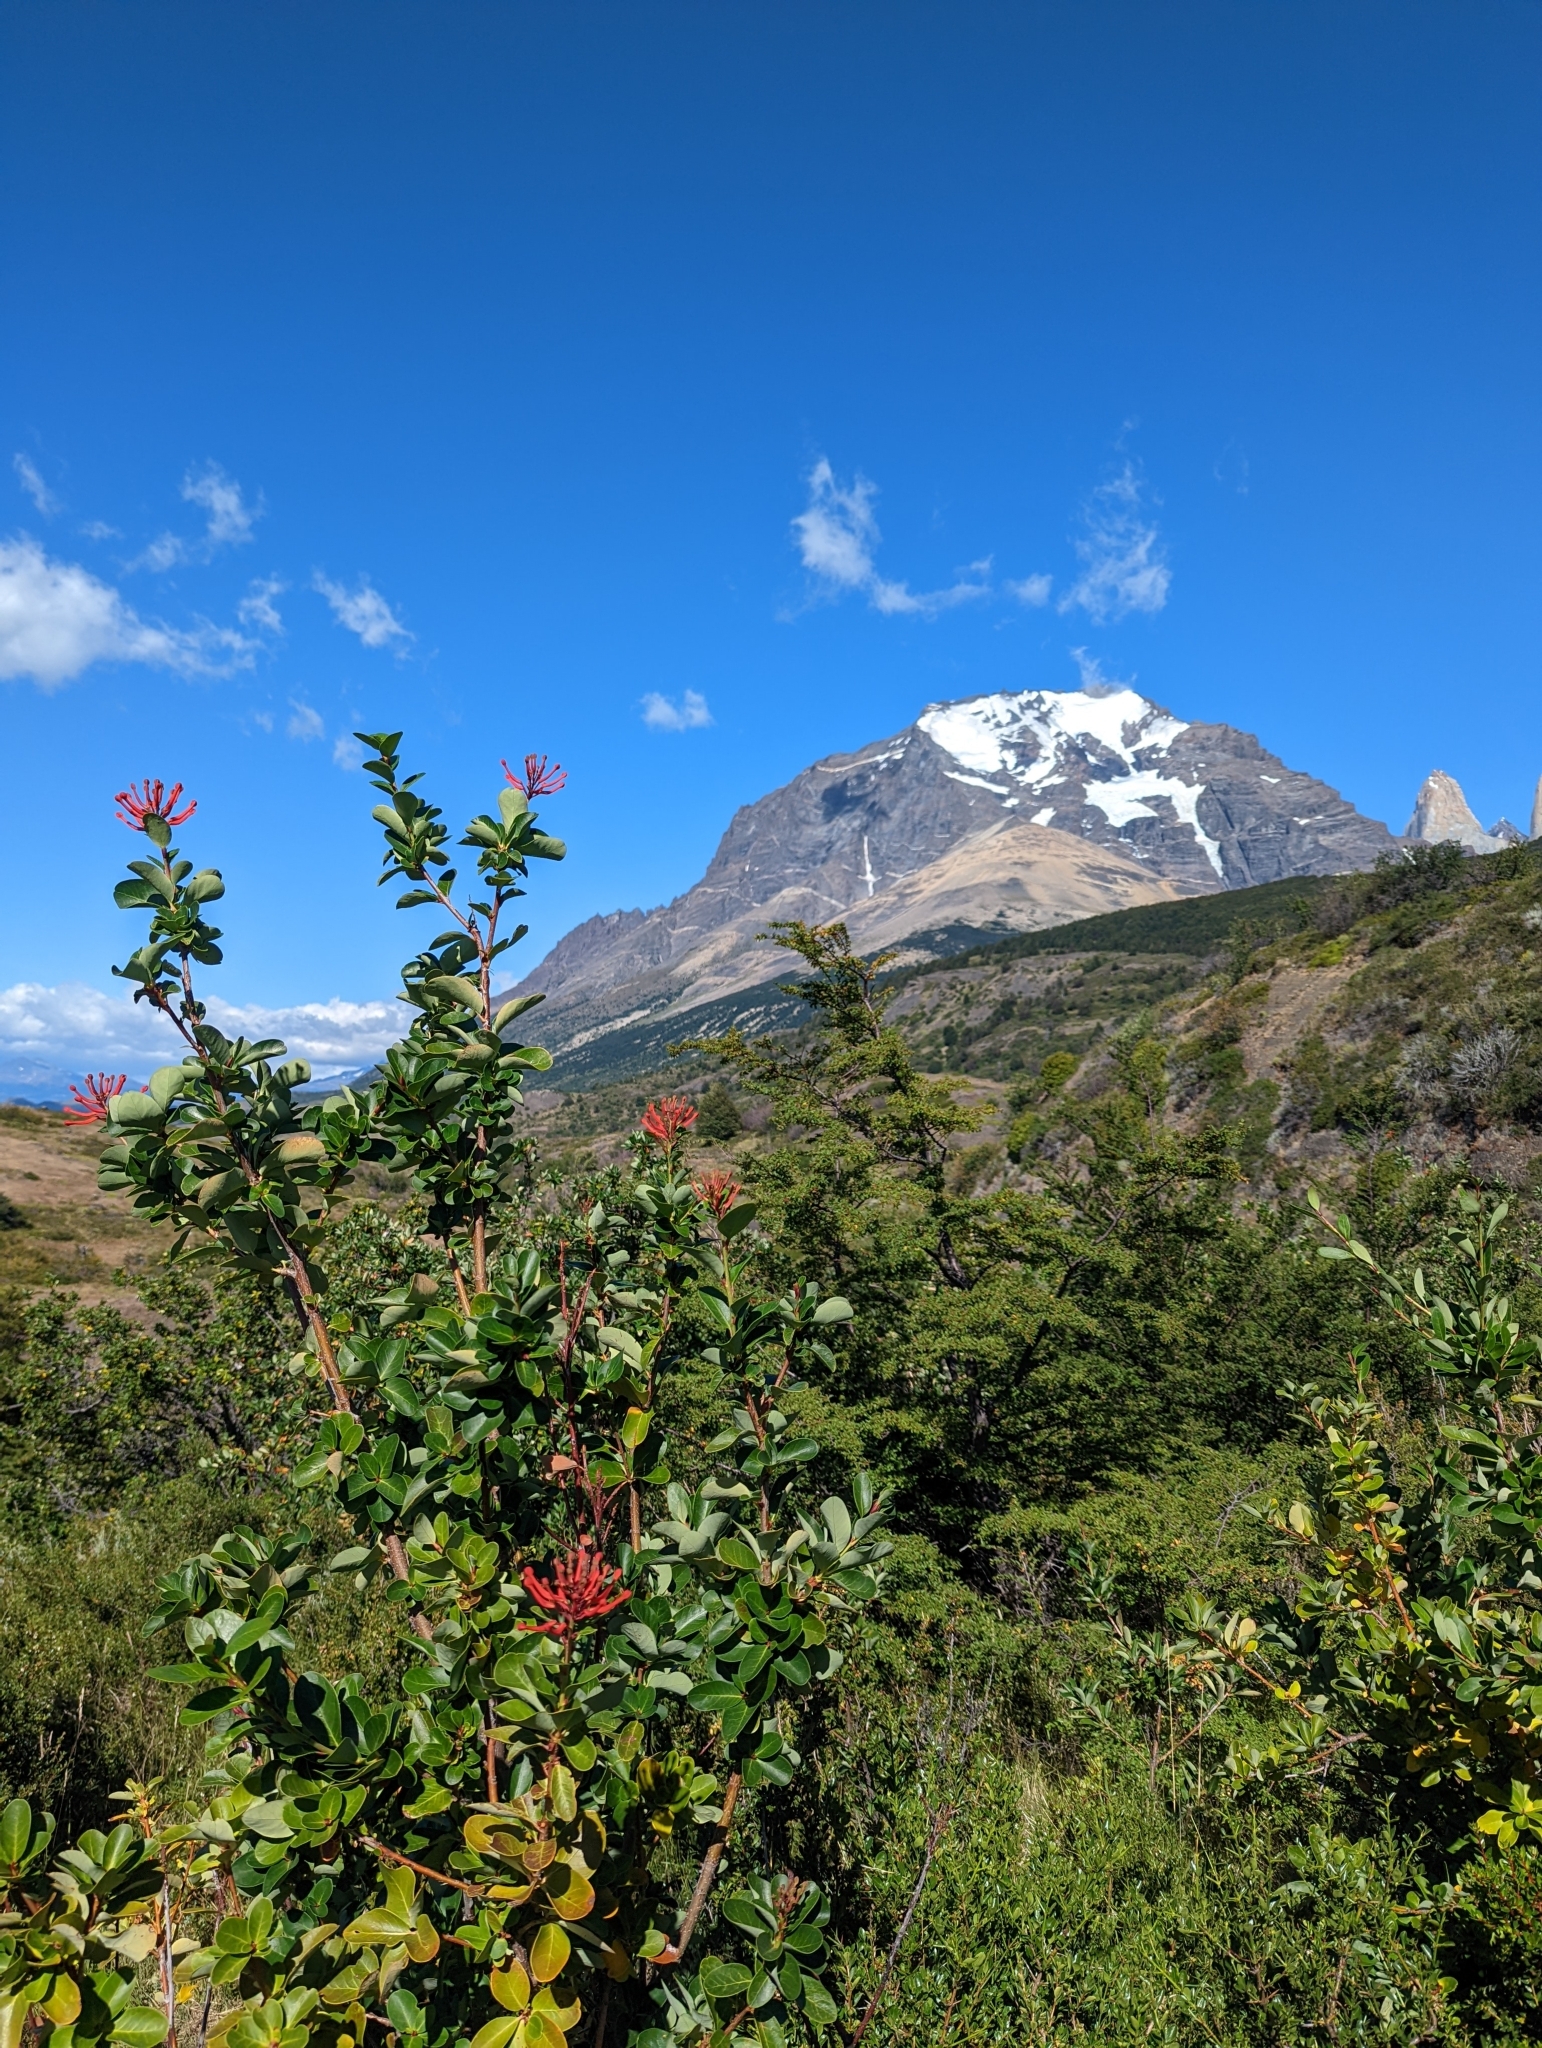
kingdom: Plantae
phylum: Tracheophyta
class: Magnoliopsida
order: Proteales
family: Proteaceae
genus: Embothrium
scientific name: Embothrium coccineum
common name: Chilean firebush
